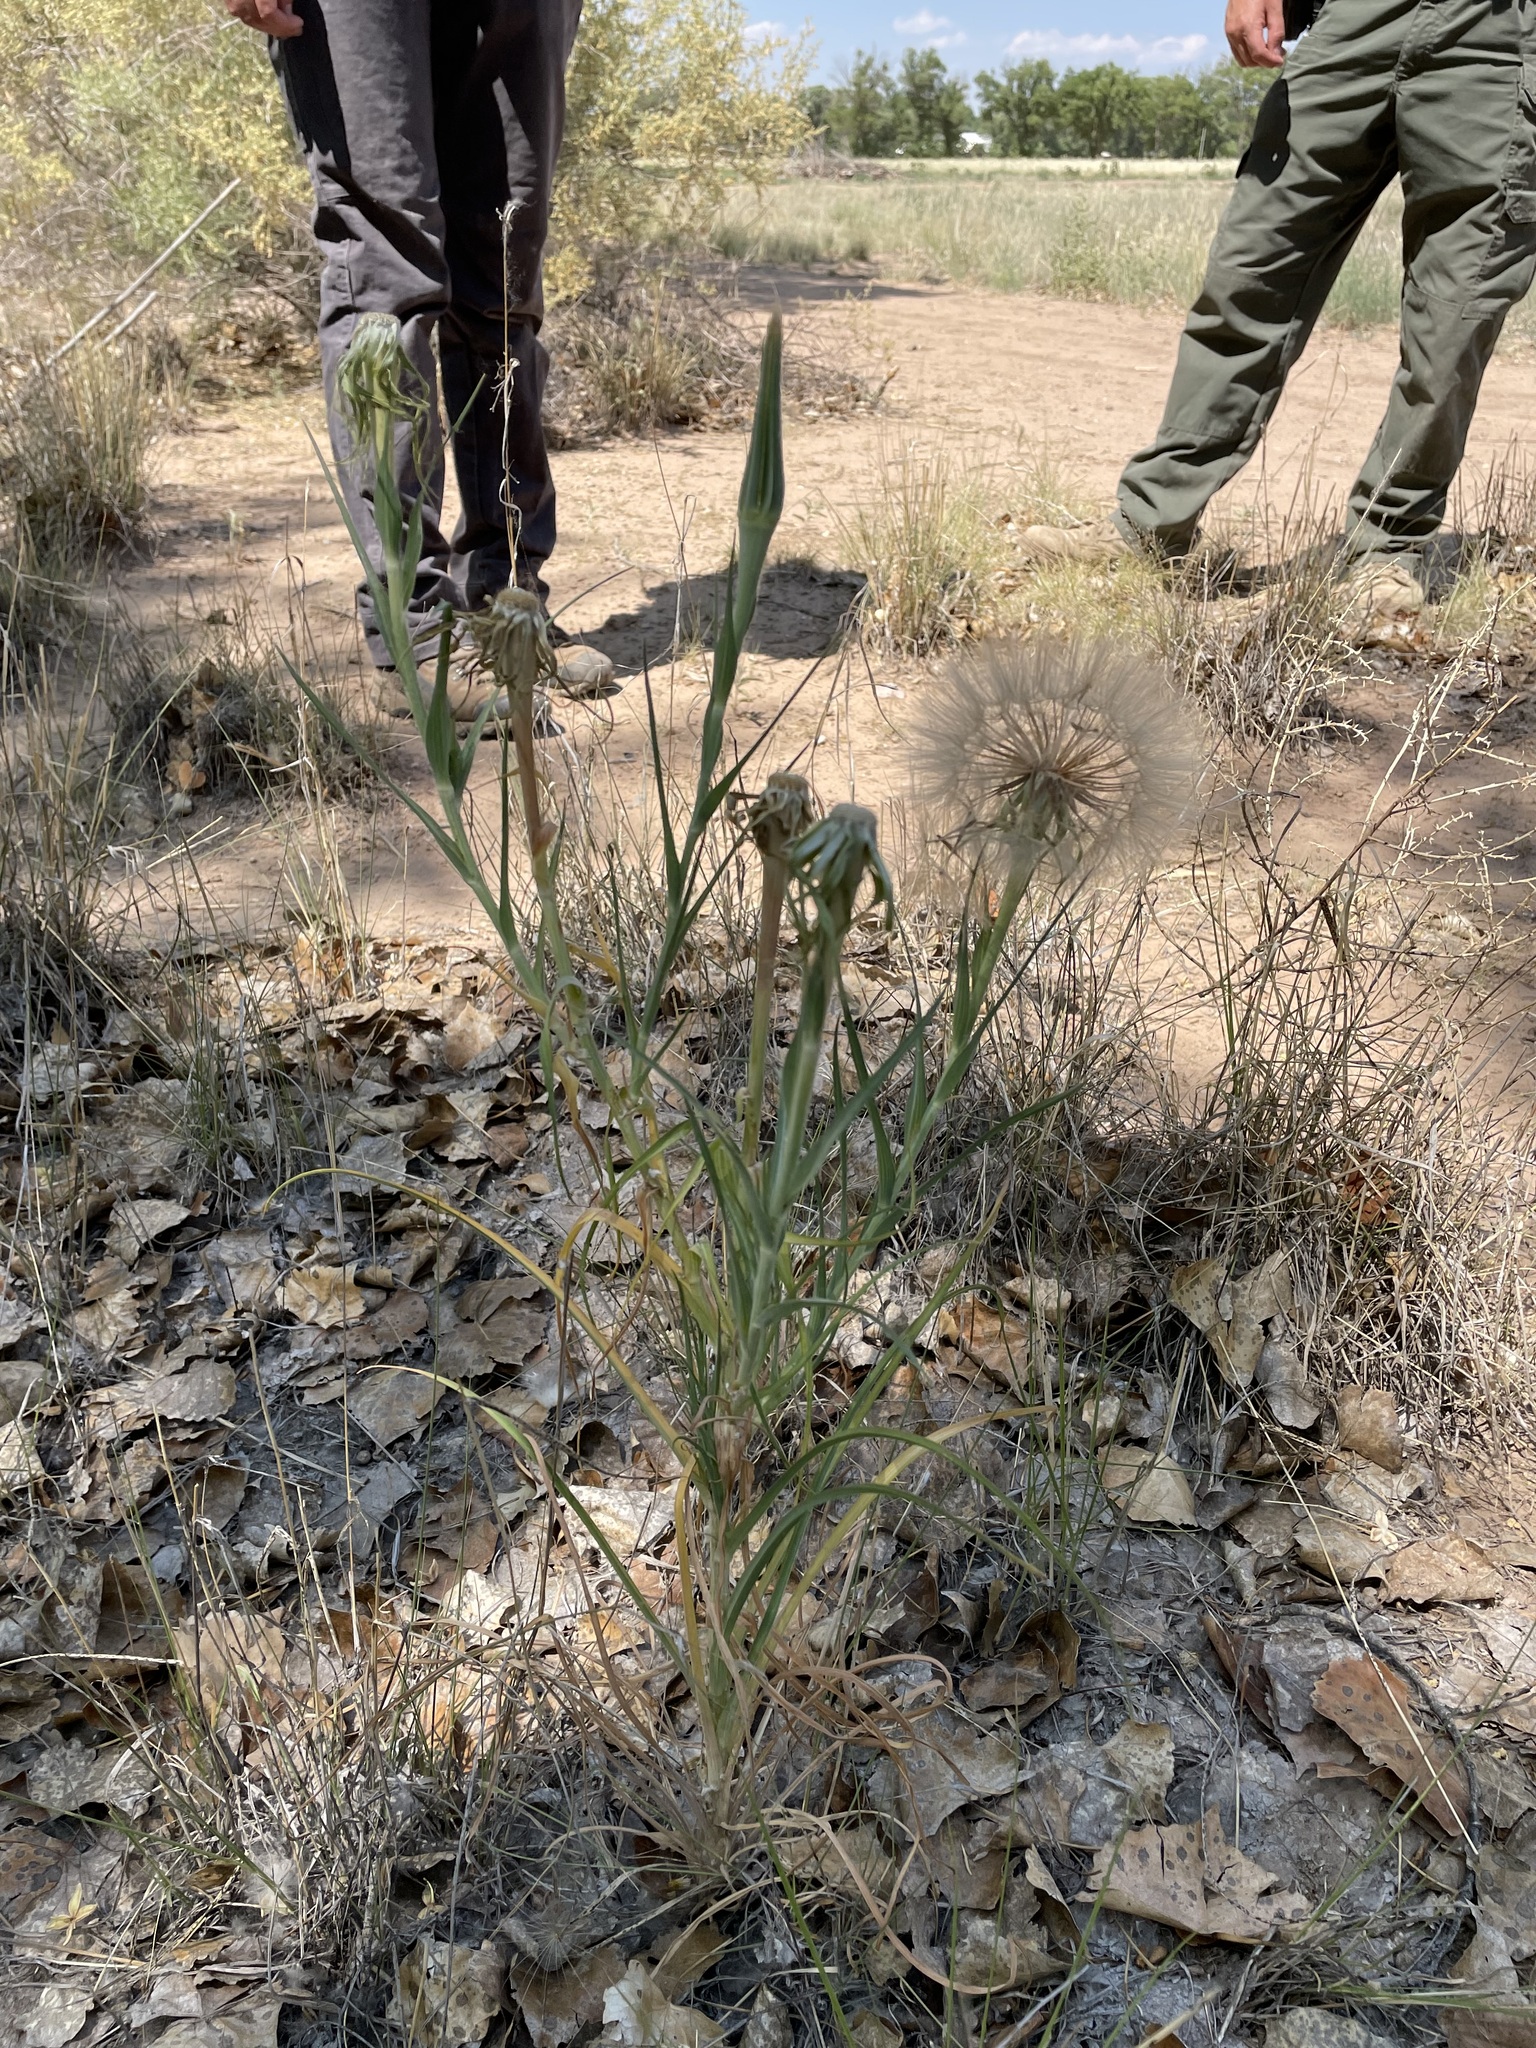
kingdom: Plantae
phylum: Tracheophyta
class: Magnoliopsida
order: Asterales
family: Asteraceae
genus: Tragopogon
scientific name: Tragopogon dubius
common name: Yellow salsify
